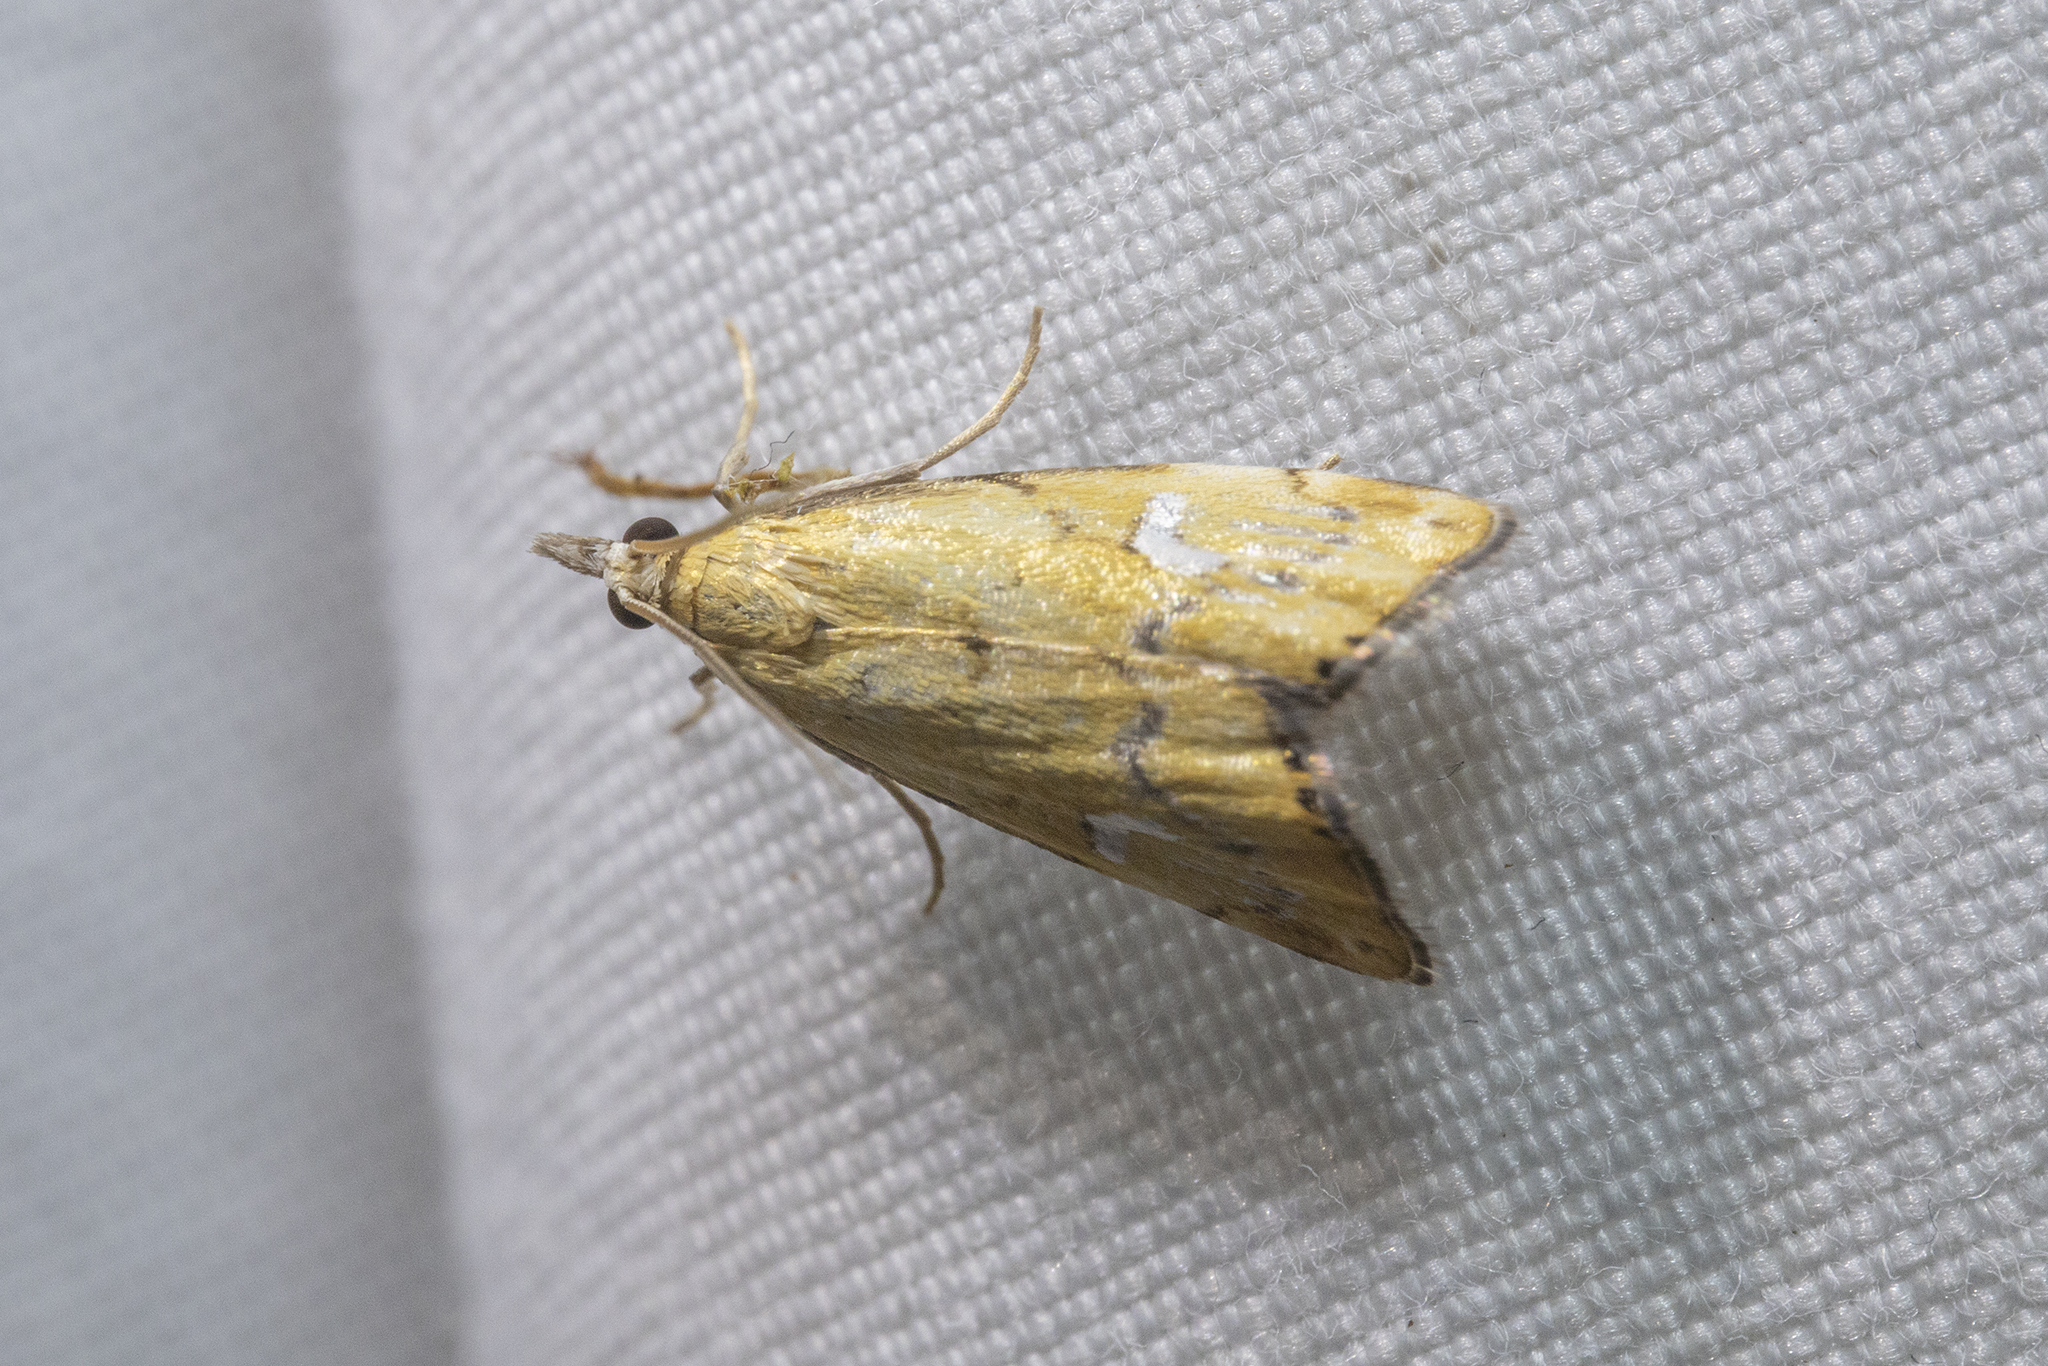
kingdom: Animalia
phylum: Arthropoda
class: Insecta
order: Lepidoptera
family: Crambidae
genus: Glaucocharis
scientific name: Glaucocharis lepidella
